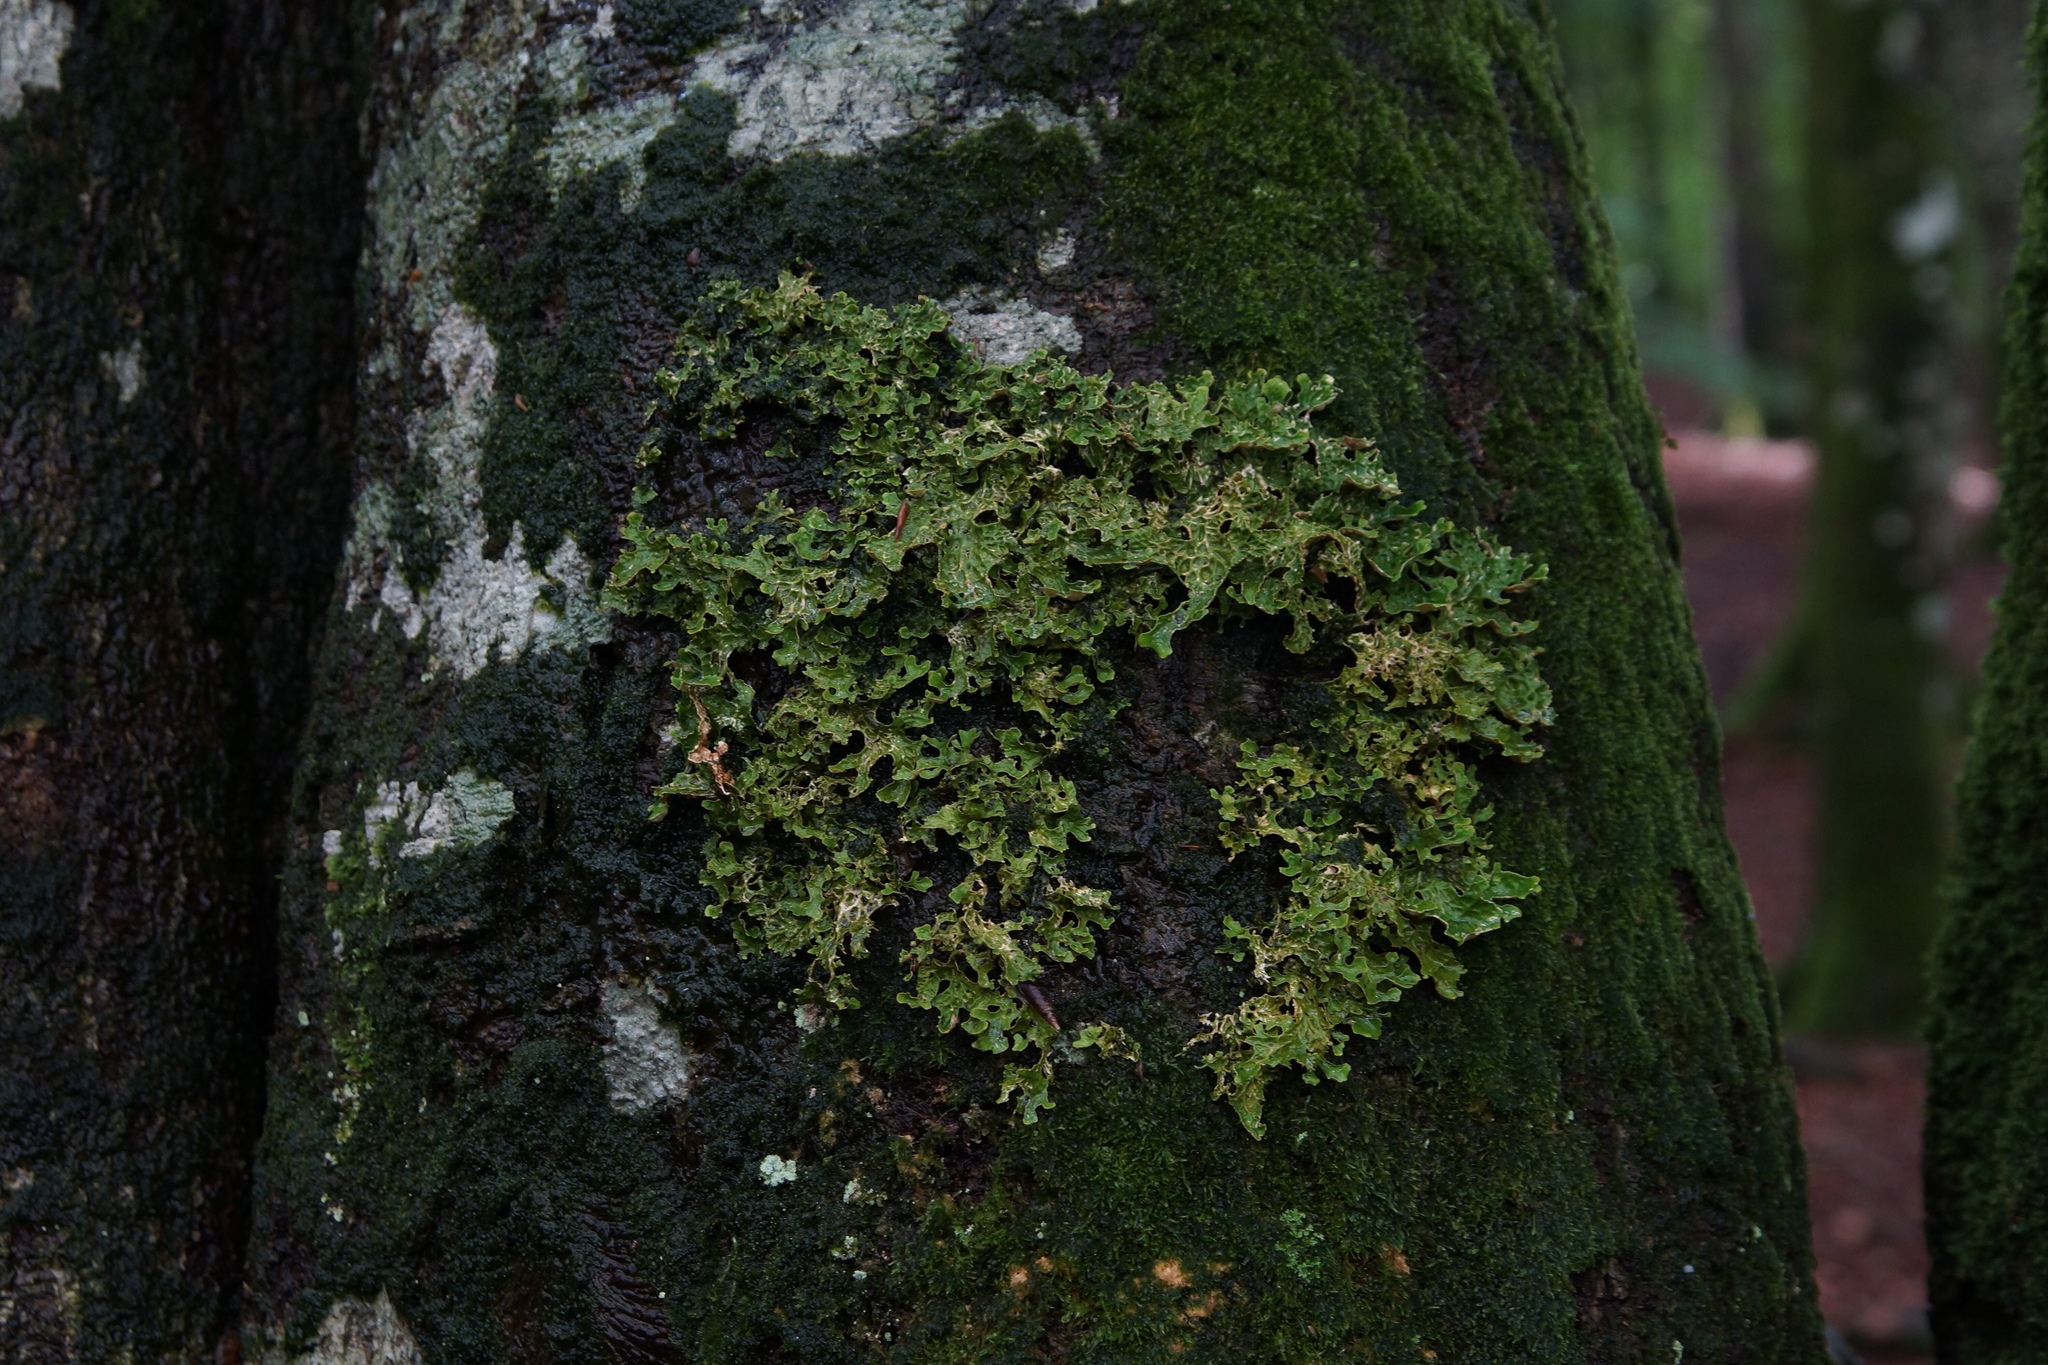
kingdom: Fungi
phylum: Ascomycota
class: Lecanoromycetes
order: Peltigerales
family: Lobariaceae
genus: Lobaria
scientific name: Lobaria pulmonaria
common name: Lungwort
